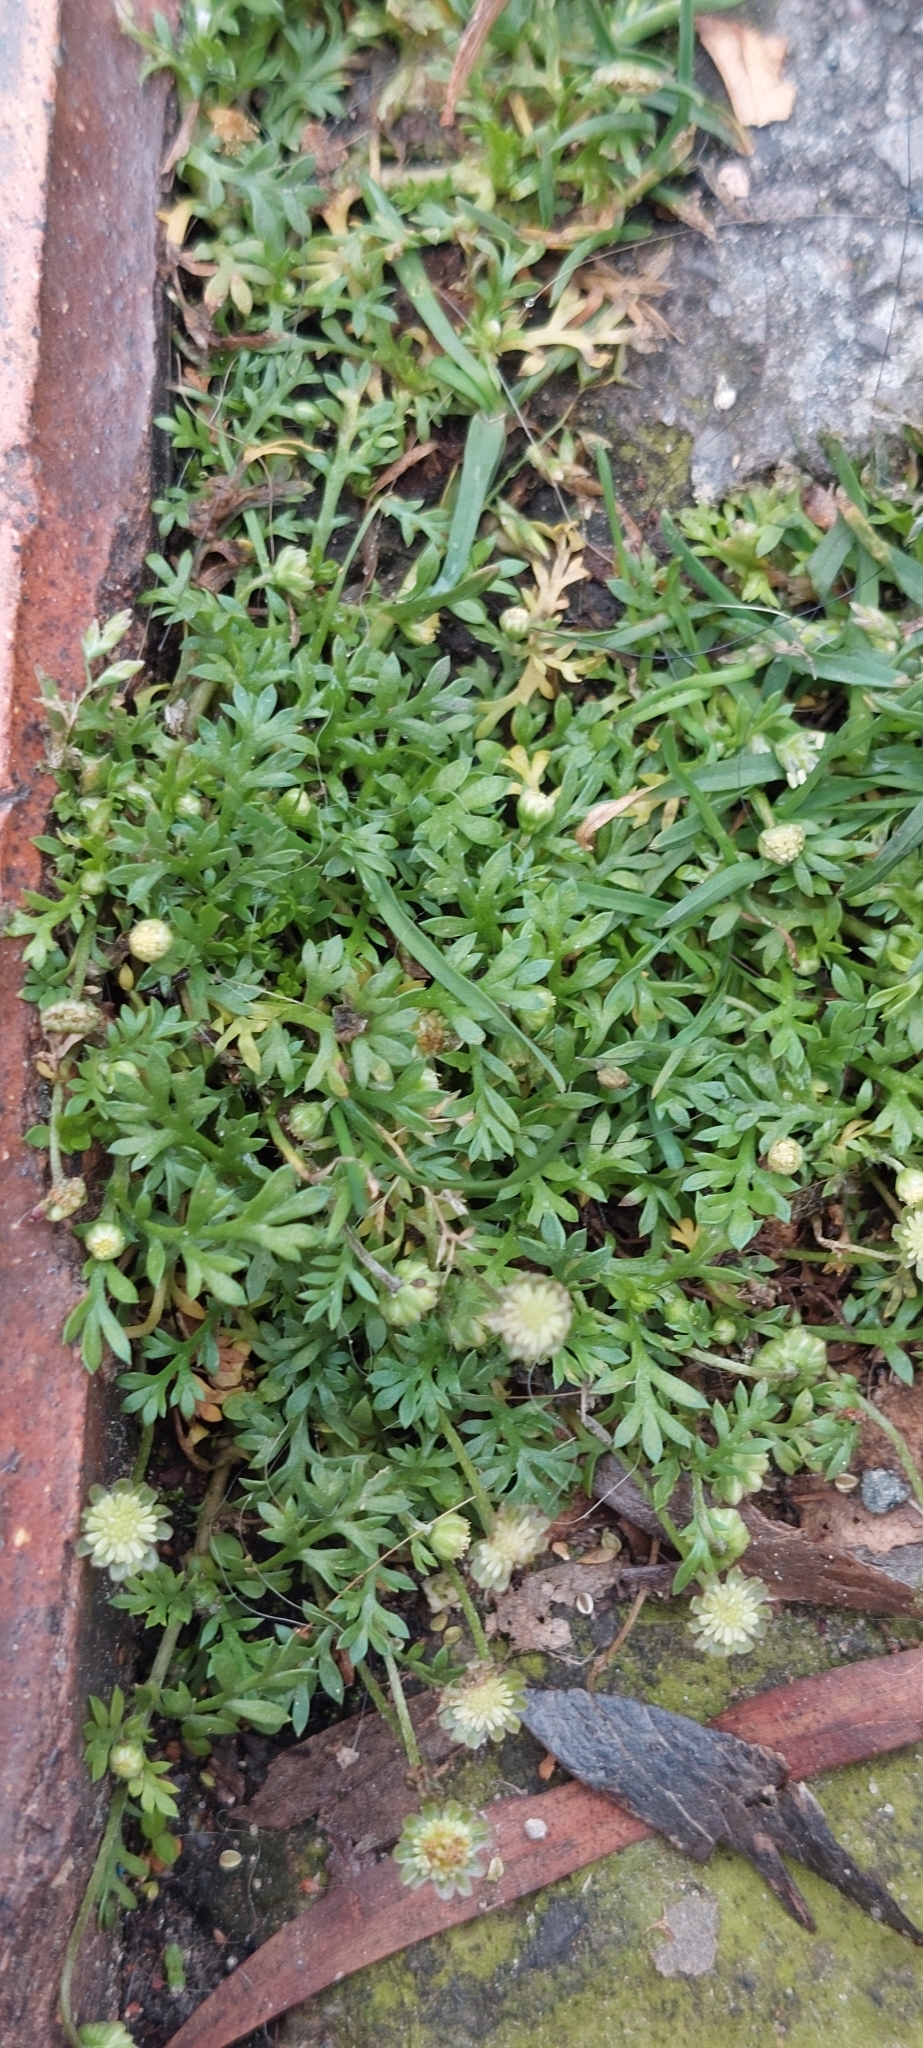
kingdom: Plantae
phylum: Tracheophyta
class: Magnoliopsida
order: Asterales
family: Asteraceae
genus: Cotula
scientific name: Cotula australis
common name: Australian waterbuttons
